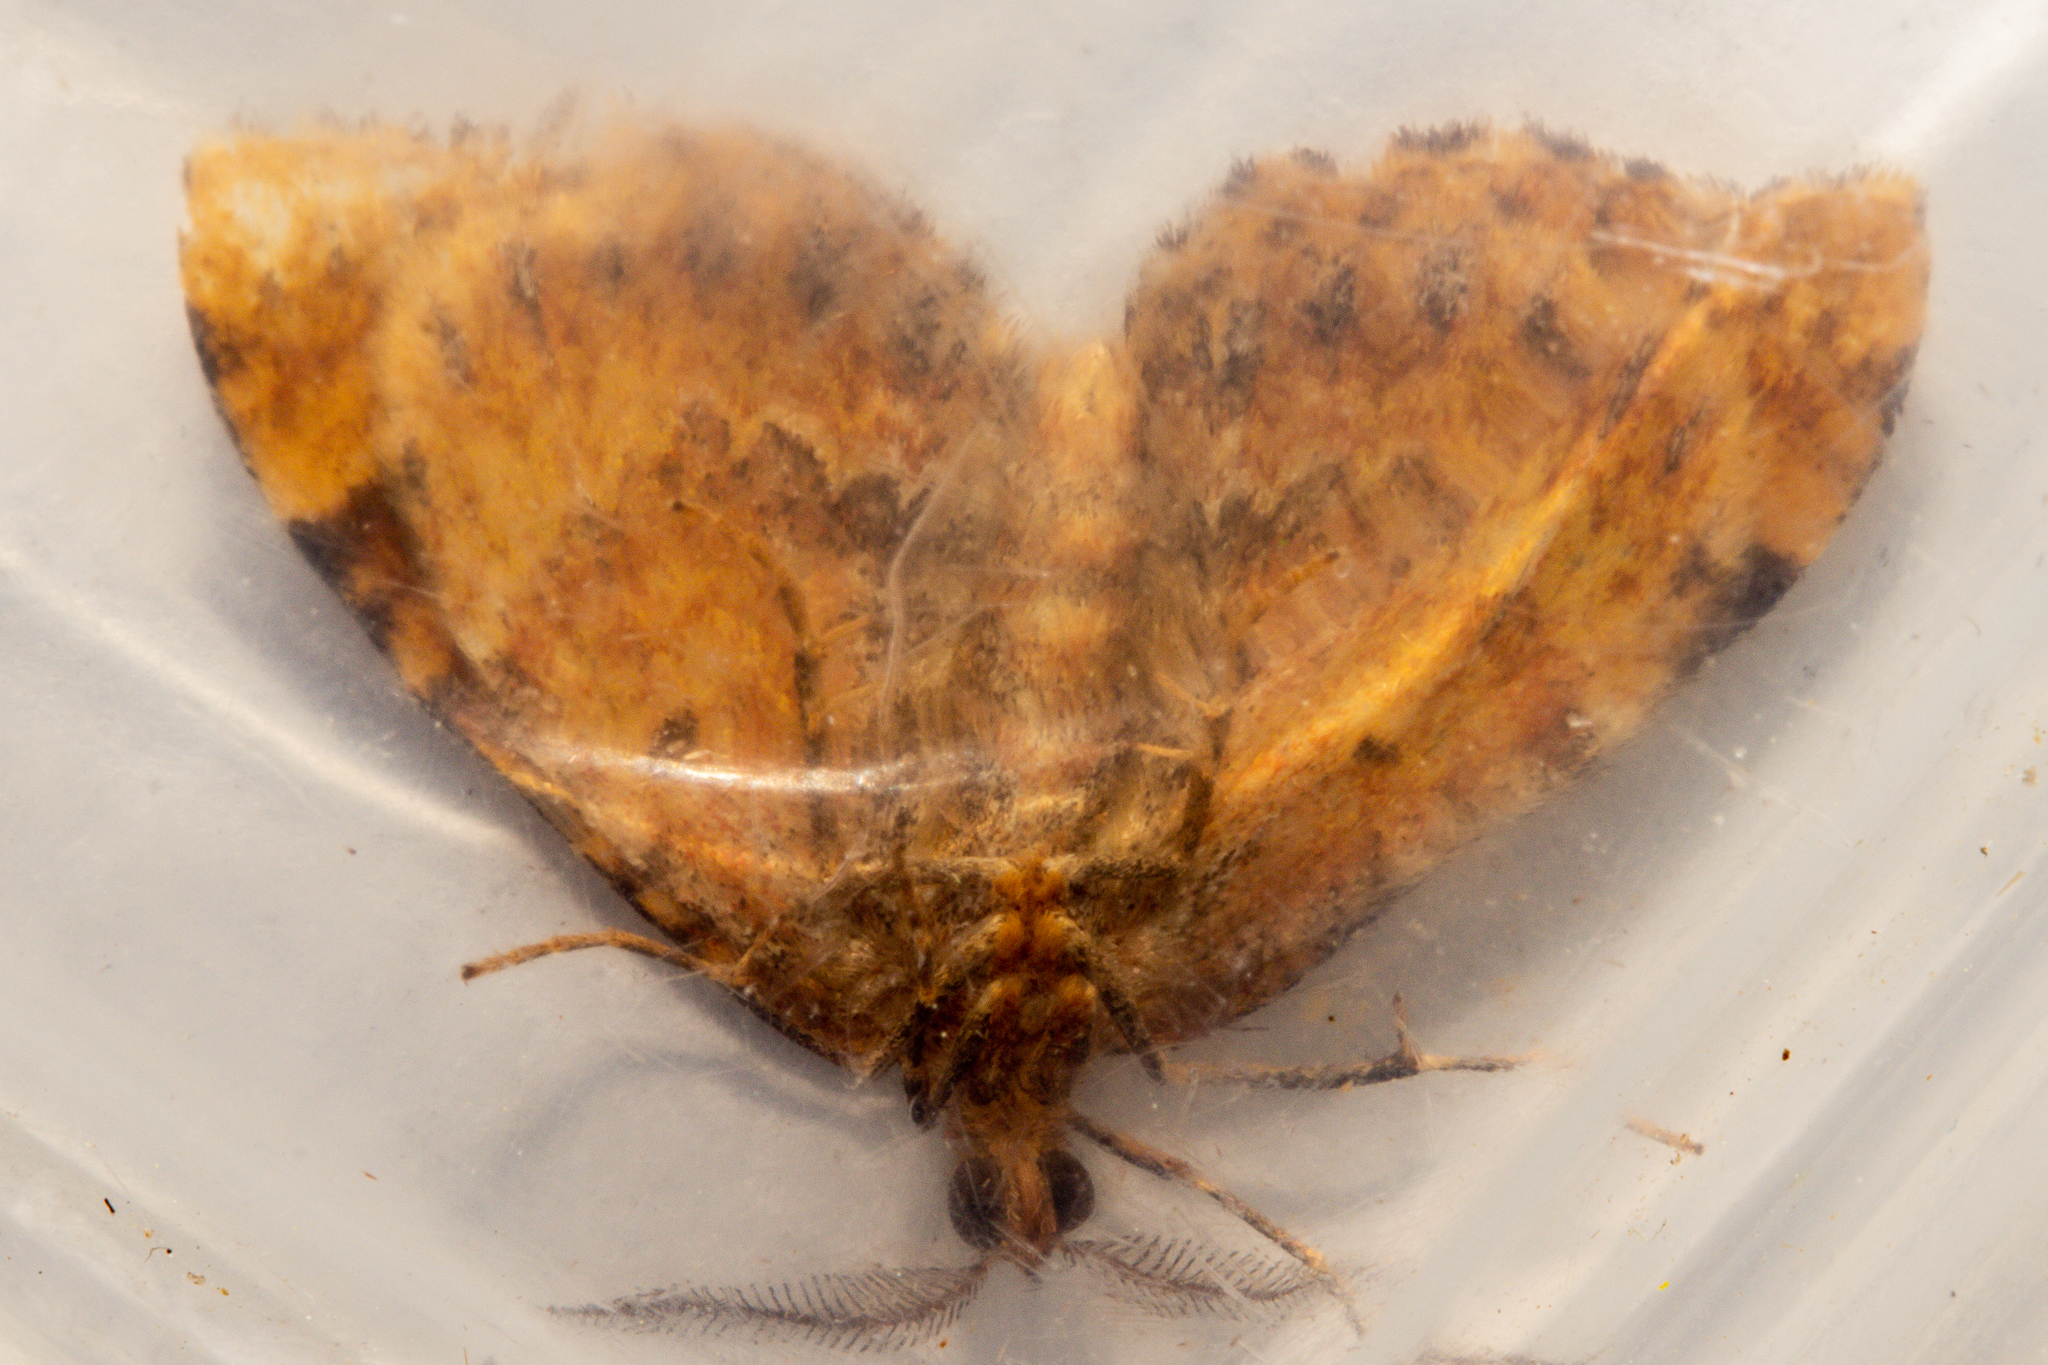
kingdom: Animalia
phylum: Arthropoda
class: Insecta
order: Lepidoptera
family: Geometridae
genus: Asaphodes
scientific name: Asaphodes prasinias
